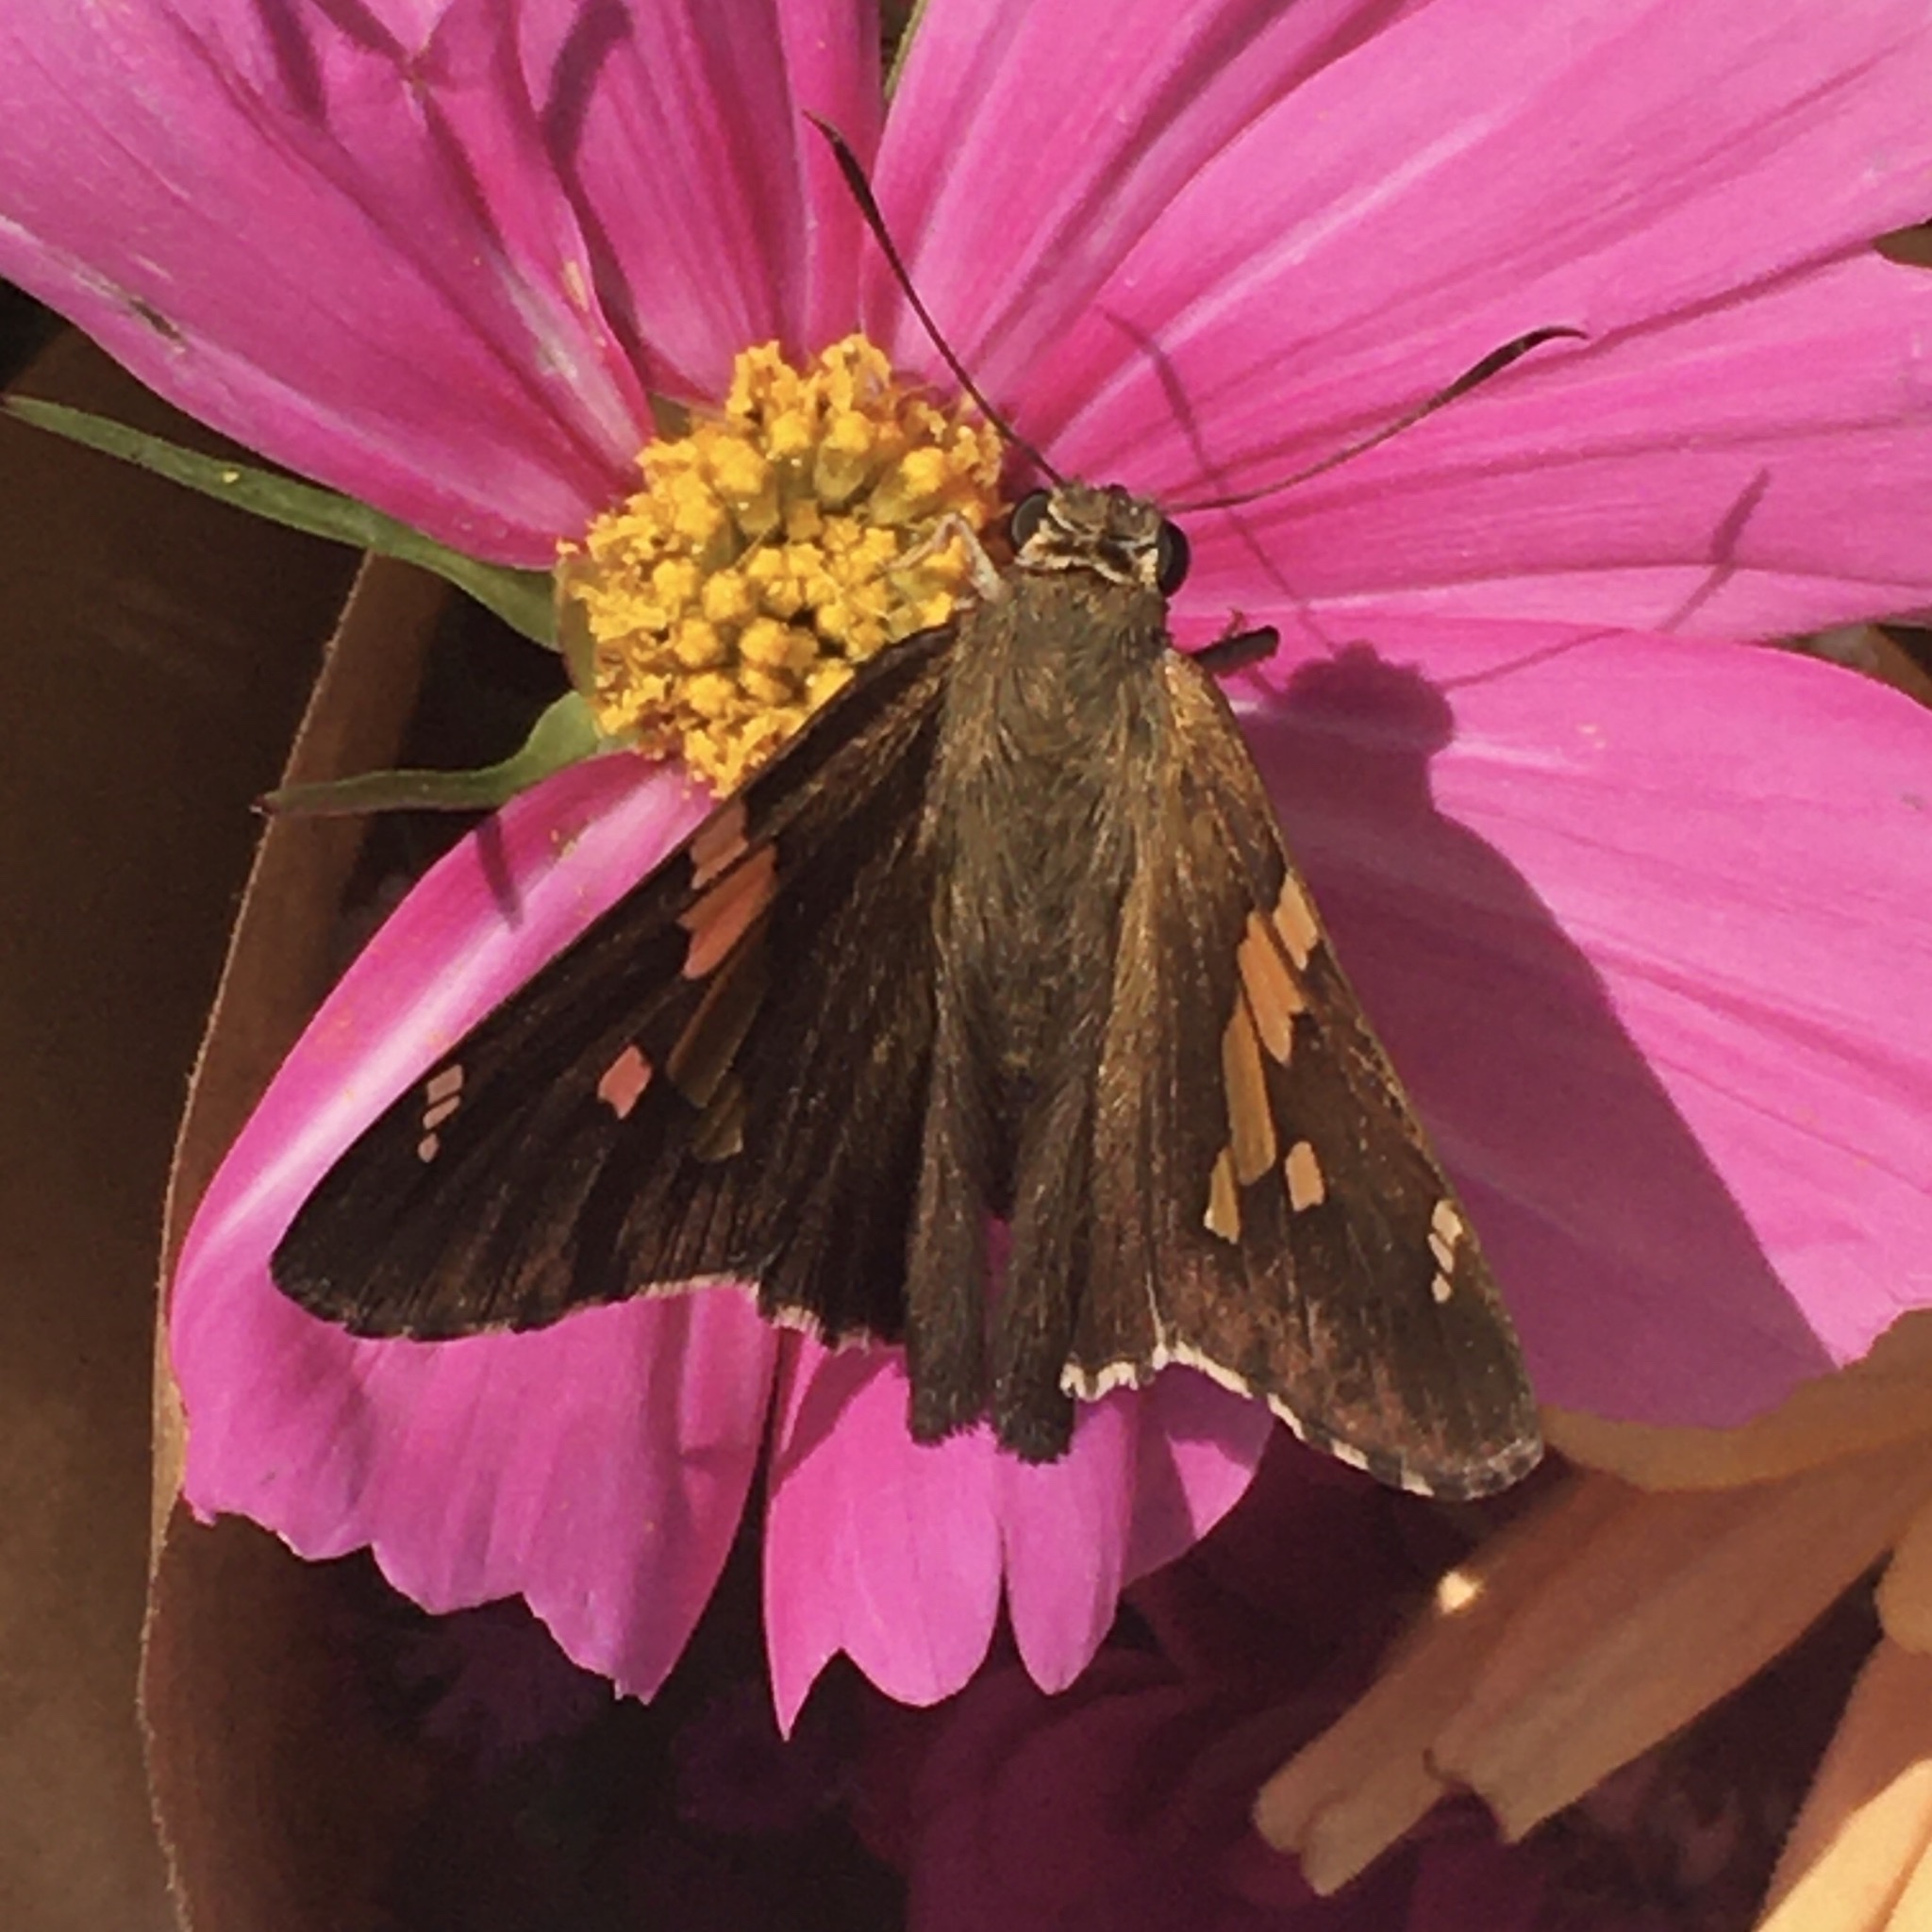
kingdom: Animalia
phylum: Arthropoda
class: Insecta
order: Lepidoptera
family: Hesperiidae
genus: Epargyreus
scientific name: Epargyreus clarus
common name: Silver-spotted skipper
